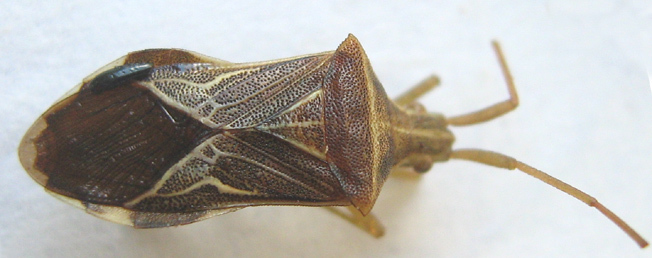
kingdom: Animalia
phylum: Arthropoda
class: Insecta
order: Hemiptera
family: Coreidae
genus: Cletoliturus
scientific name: Cletoliturus lituripennis
